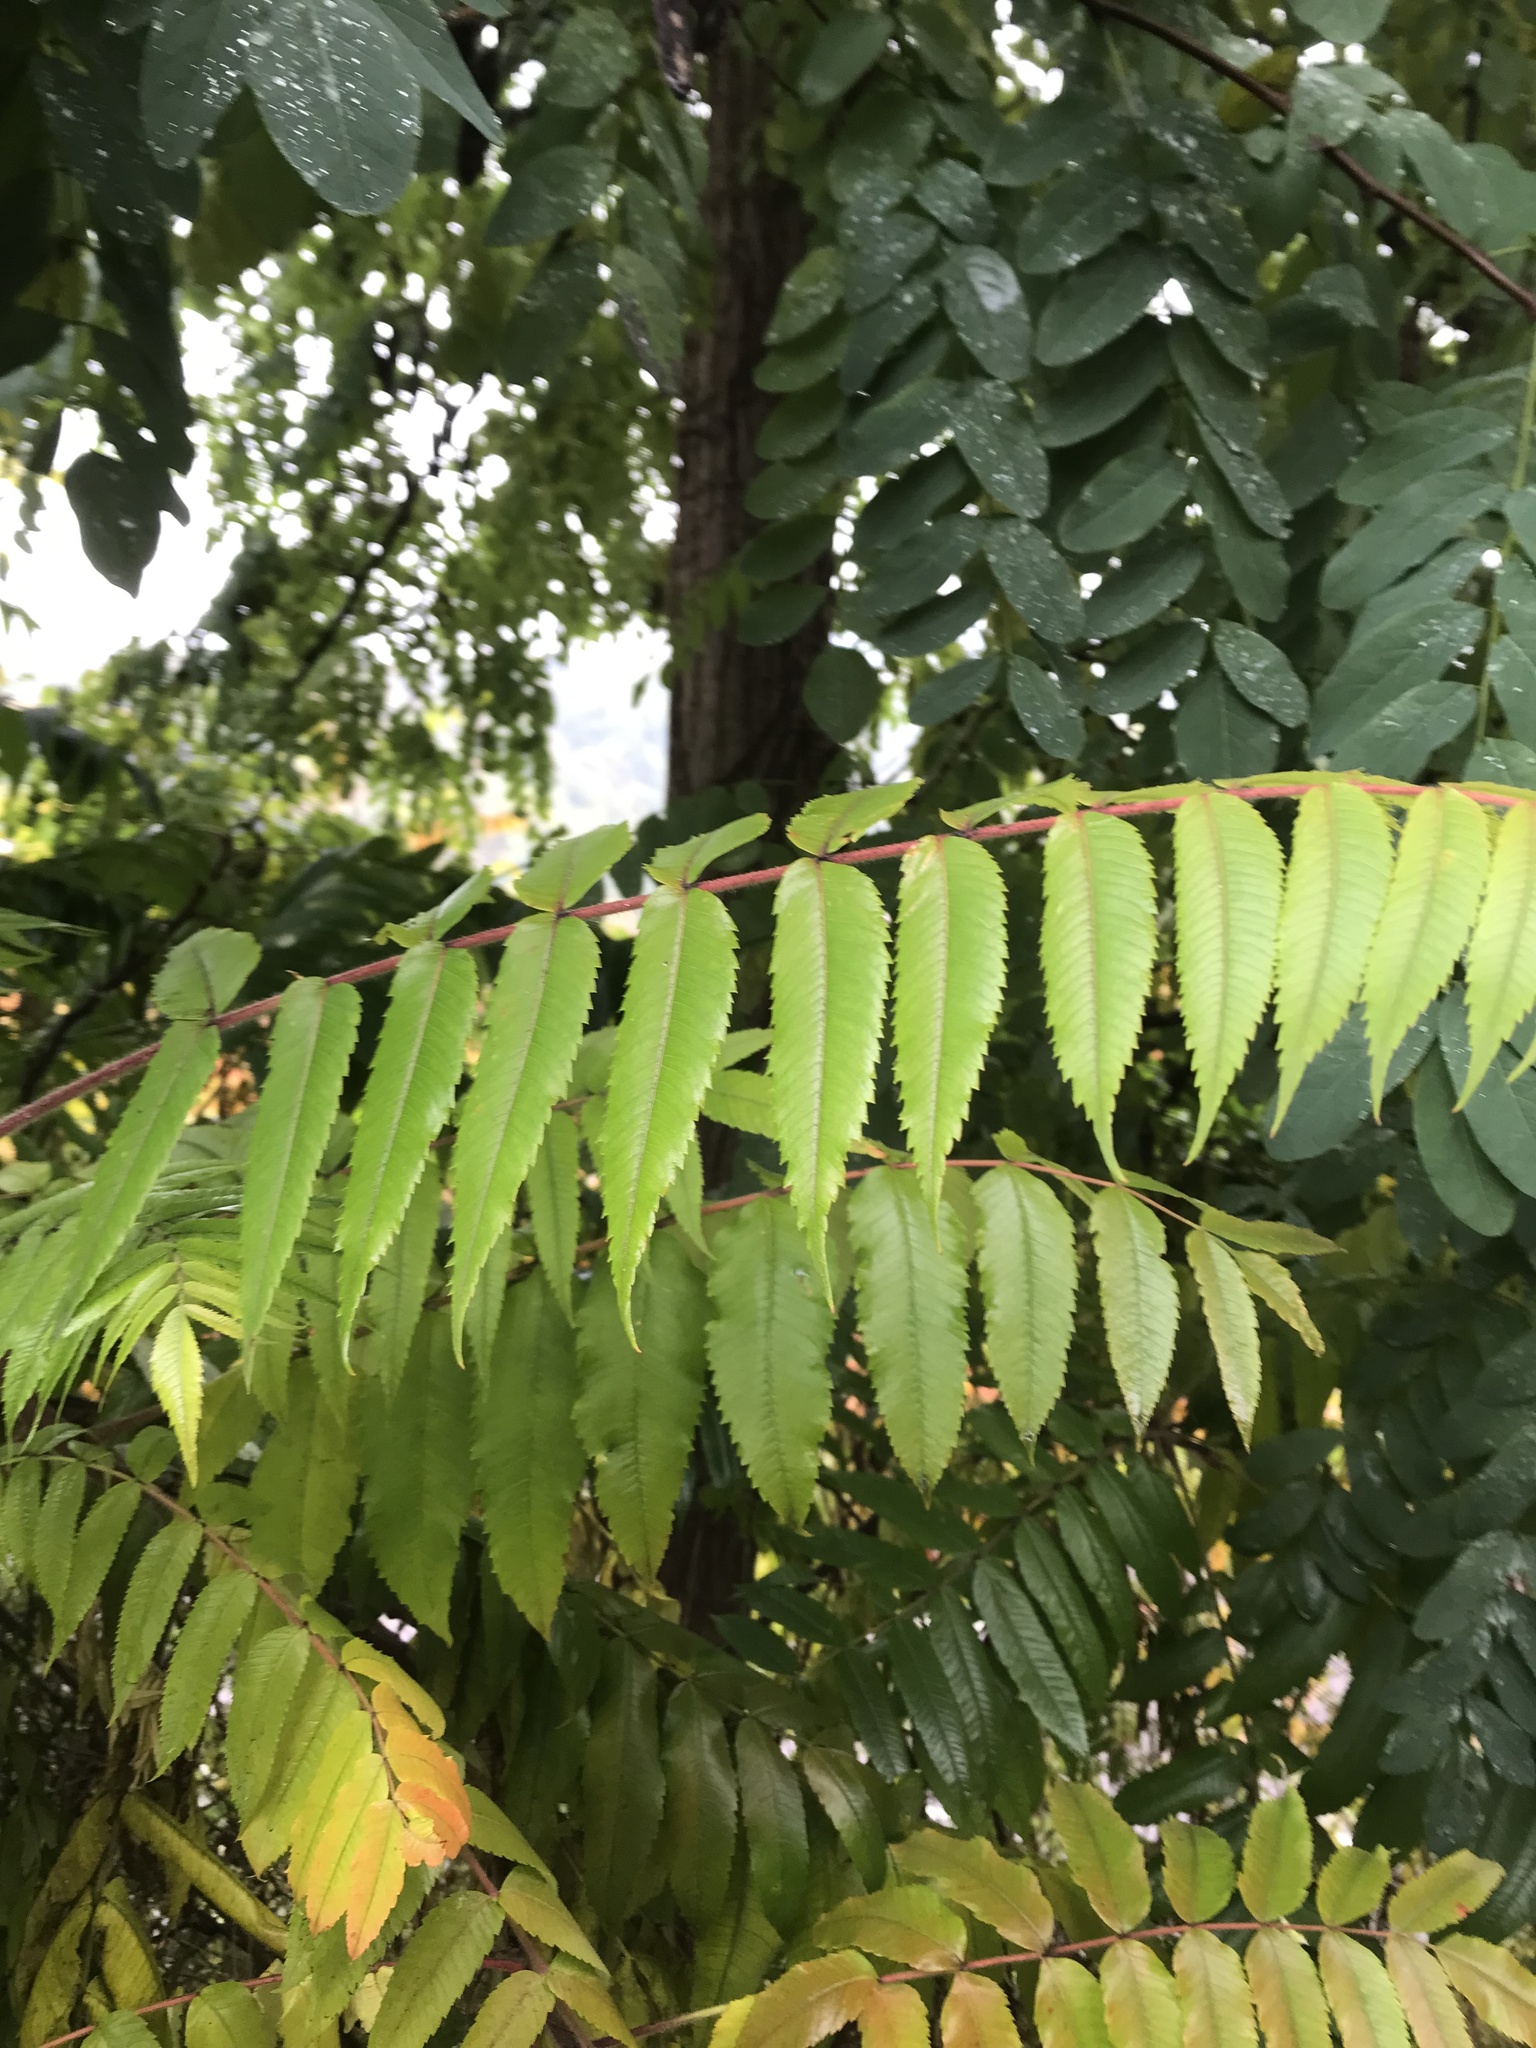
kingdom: Plantae
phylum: Tracheophyta
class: Magnoliopsida
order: Sapindales
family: Anacardiaceae
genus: Rhus
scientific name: Rhus typhina
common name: Staghorn sumac
